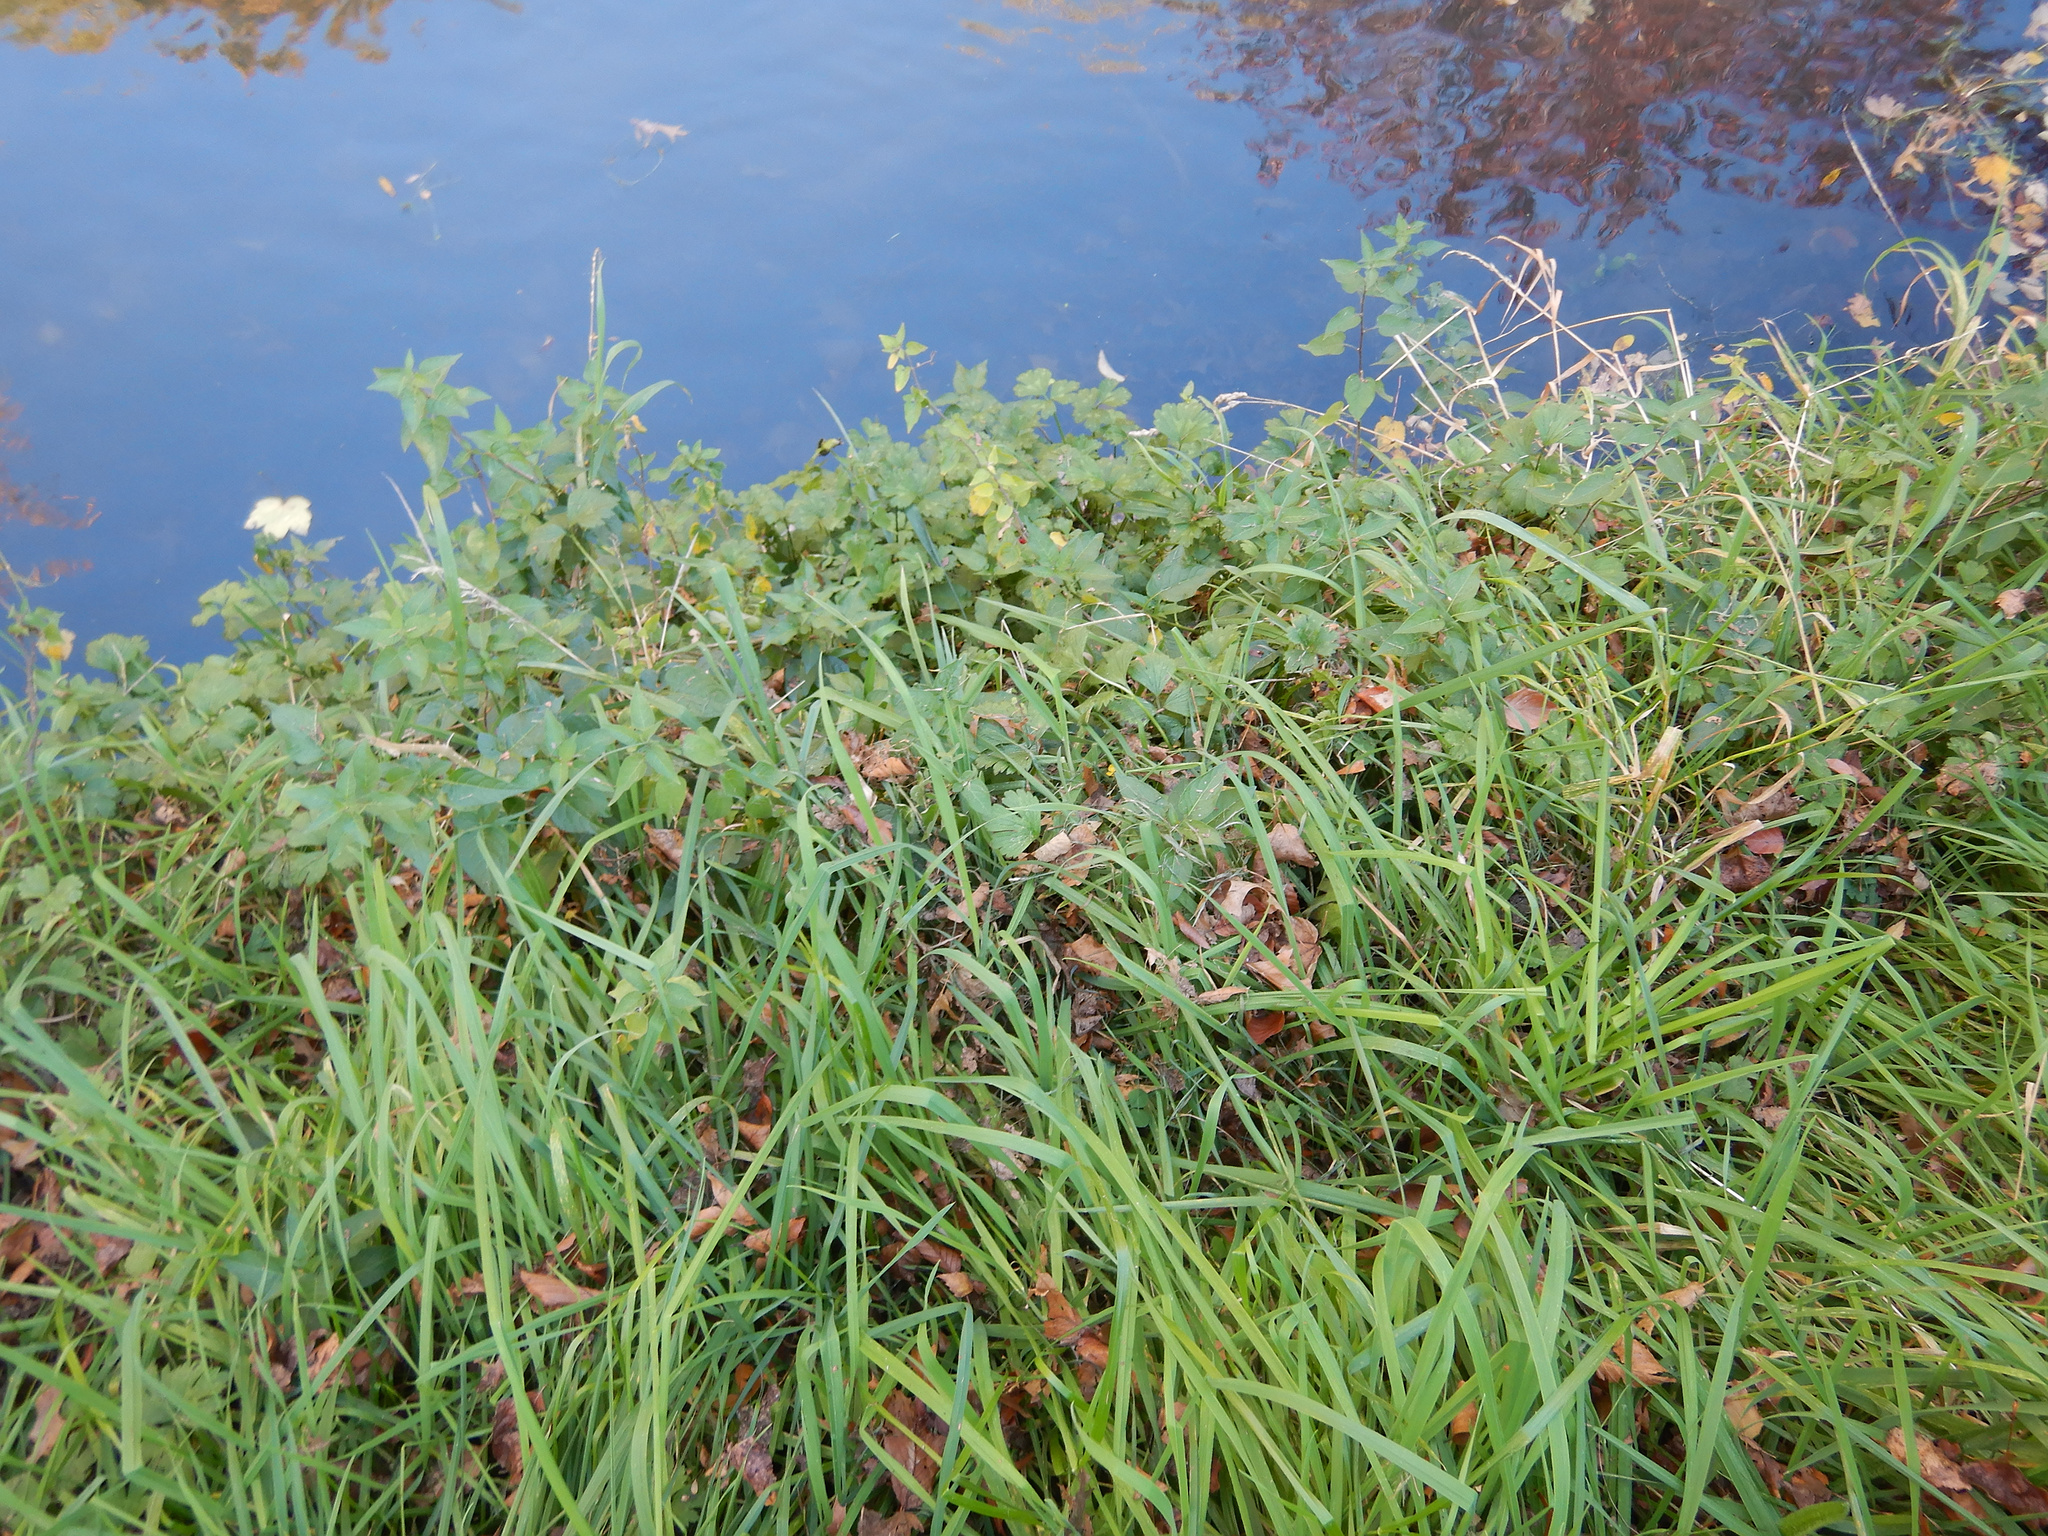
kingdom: Plantae
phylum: Tracheophyta
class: Magnoliopsida
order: Solanales
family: Solanaceae
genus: Solanum
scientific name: Solanum dulcamara
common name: Climbing nightshade
